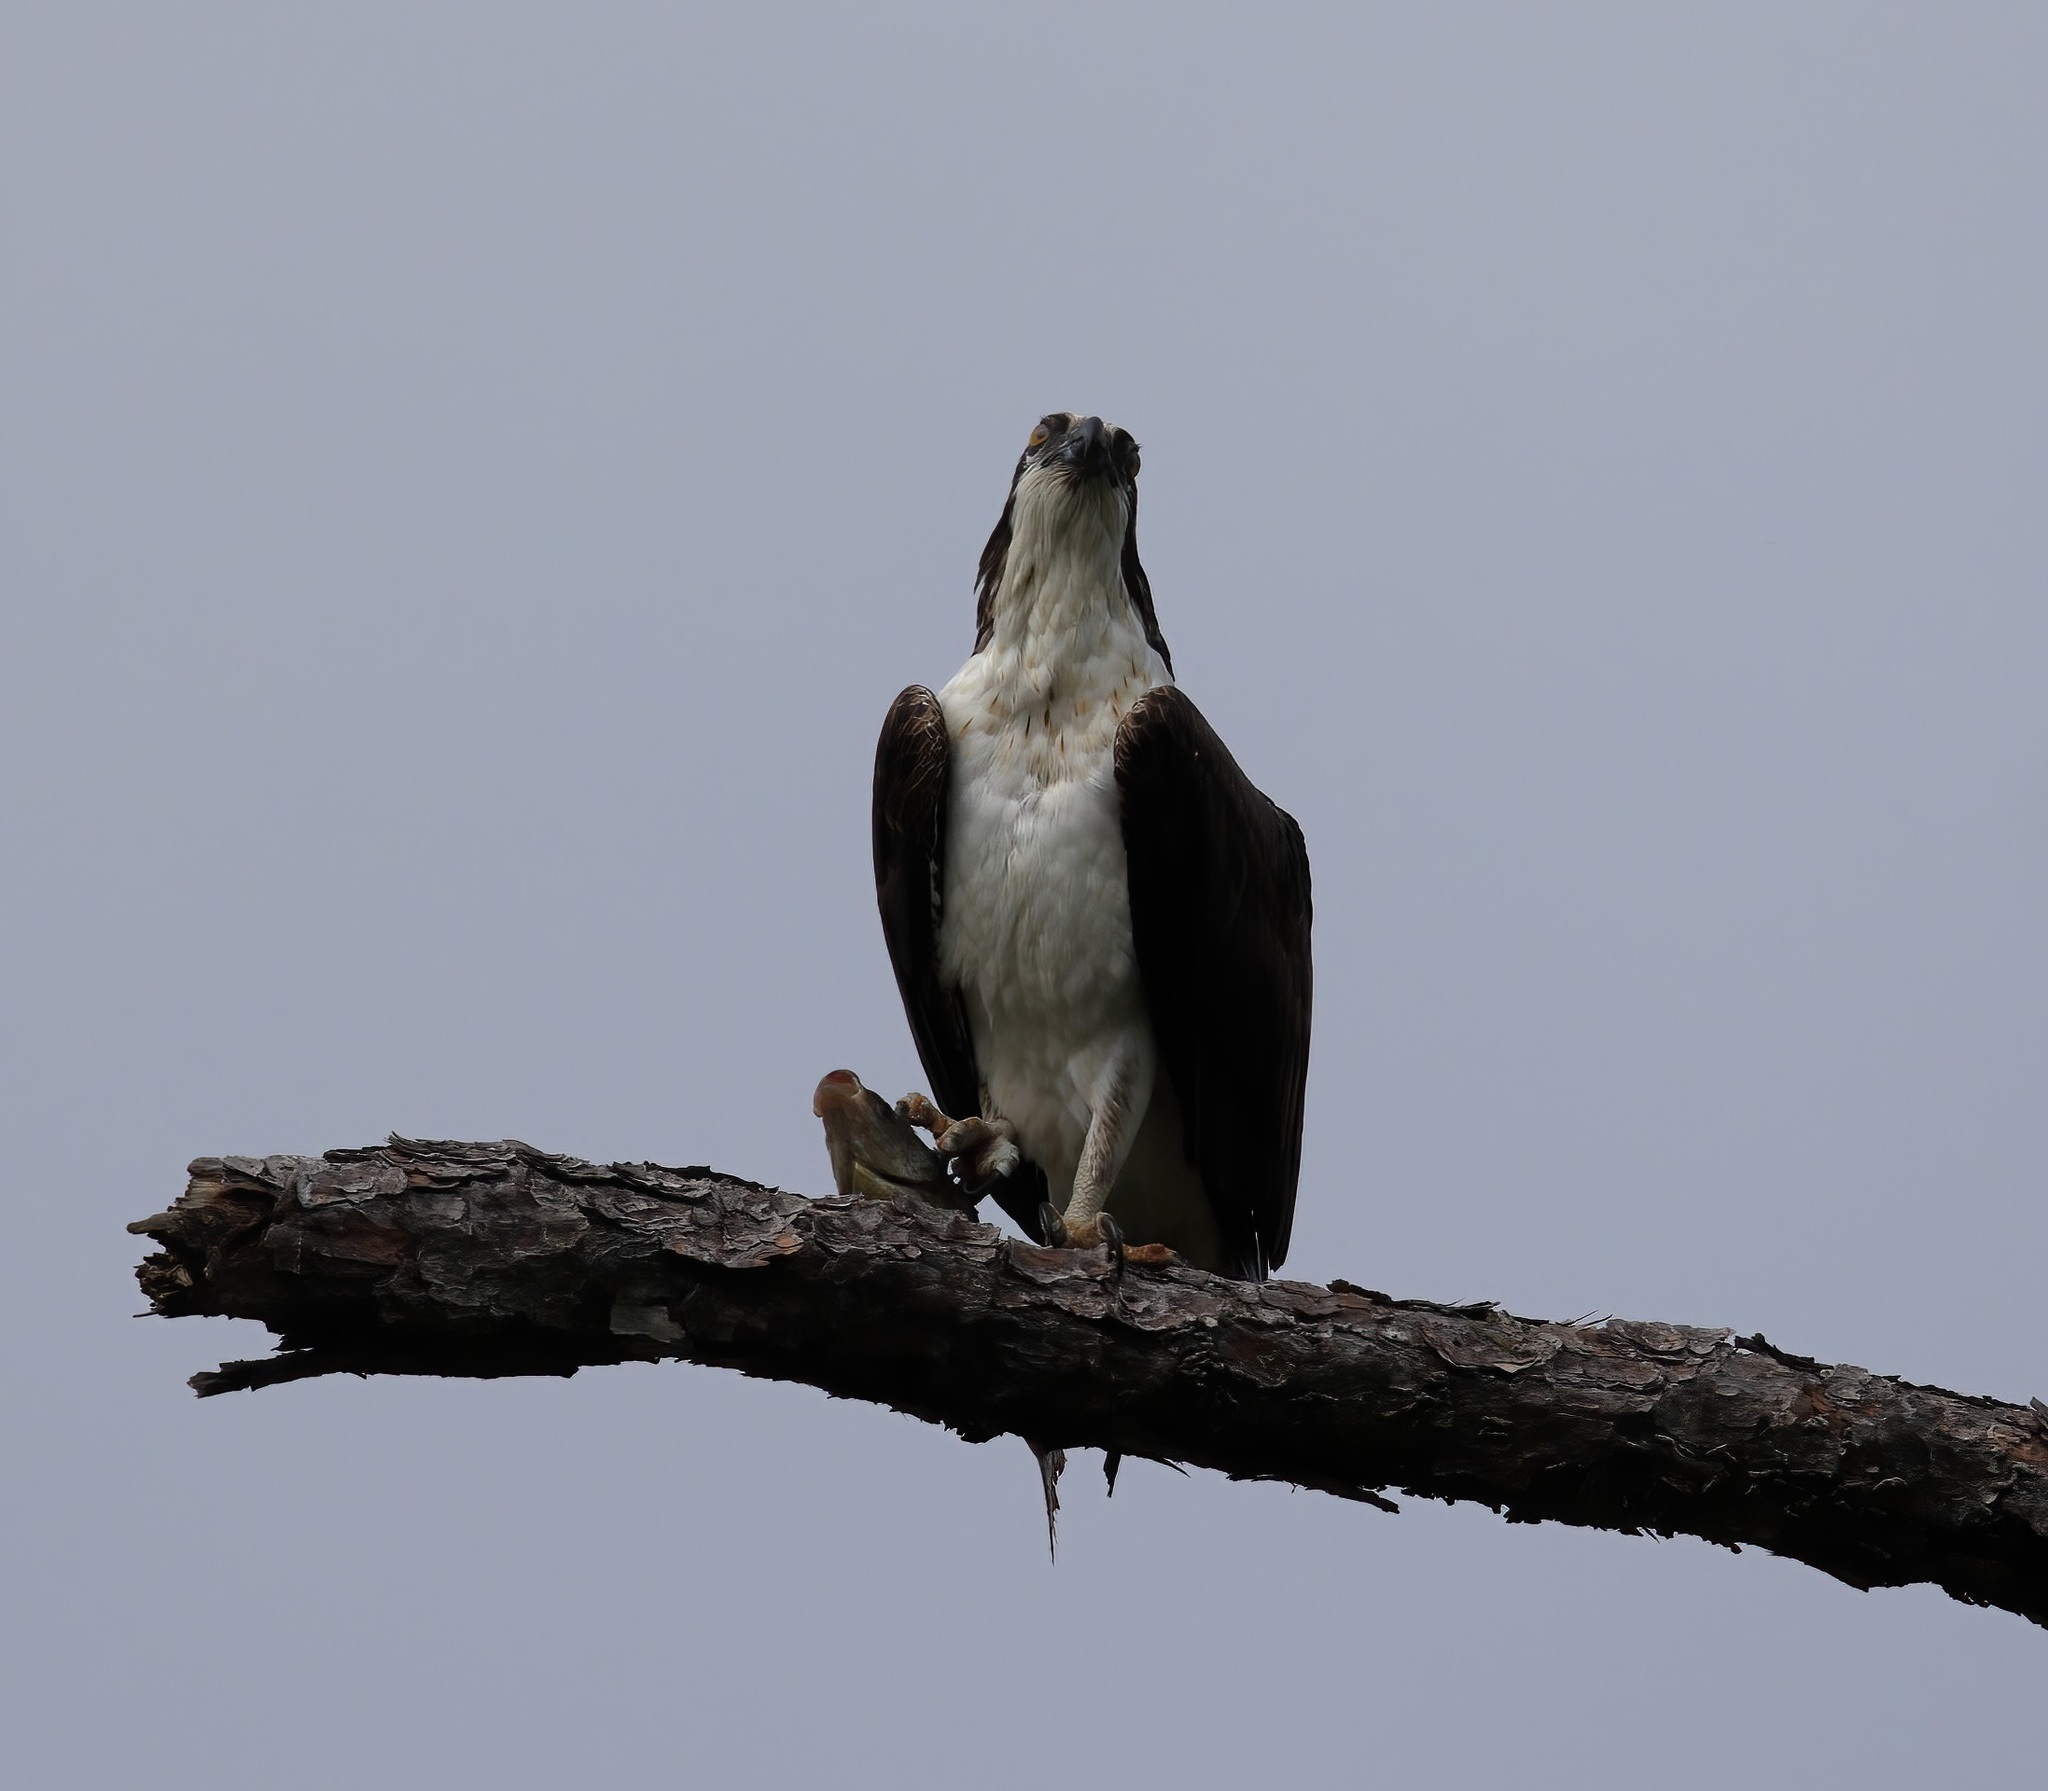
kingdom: Animalia
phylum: Chordata
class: Aves
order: Accipitriformes
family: Pandionidae
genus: Pandion
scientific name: Pandion haliaetus
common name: Osprey
